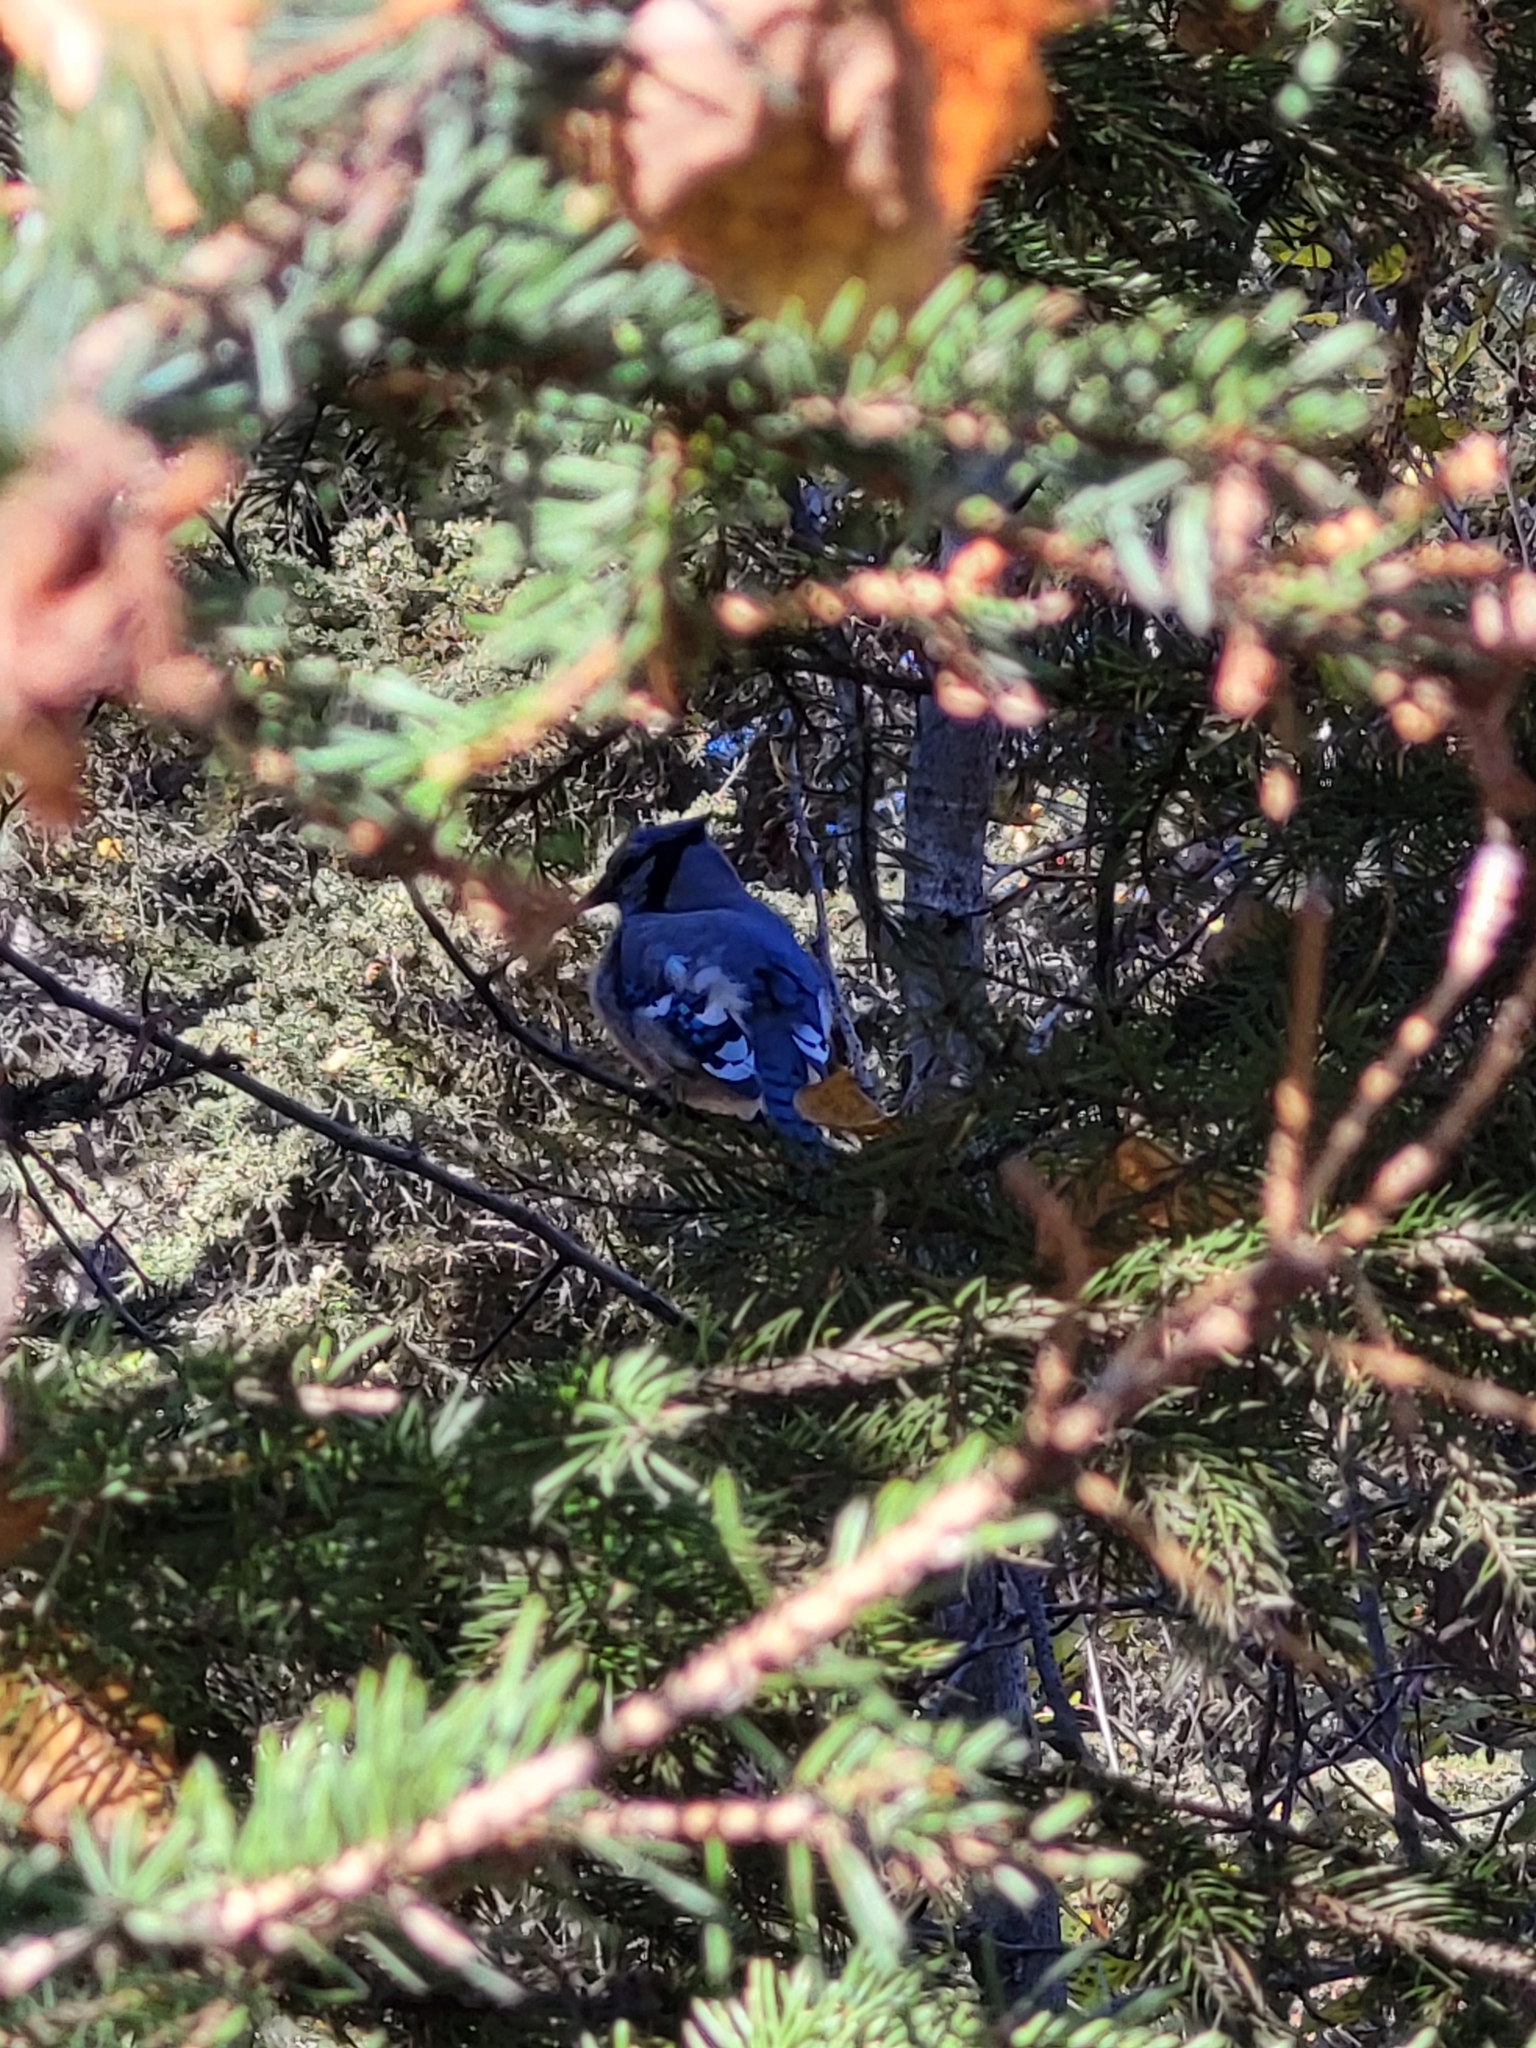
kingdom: Animalia
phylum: Chordata
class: Aves
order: Passeriformes
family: Corvidae
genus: Cyanocitta
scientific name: Cyanocitta cristata
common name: Blue jay
